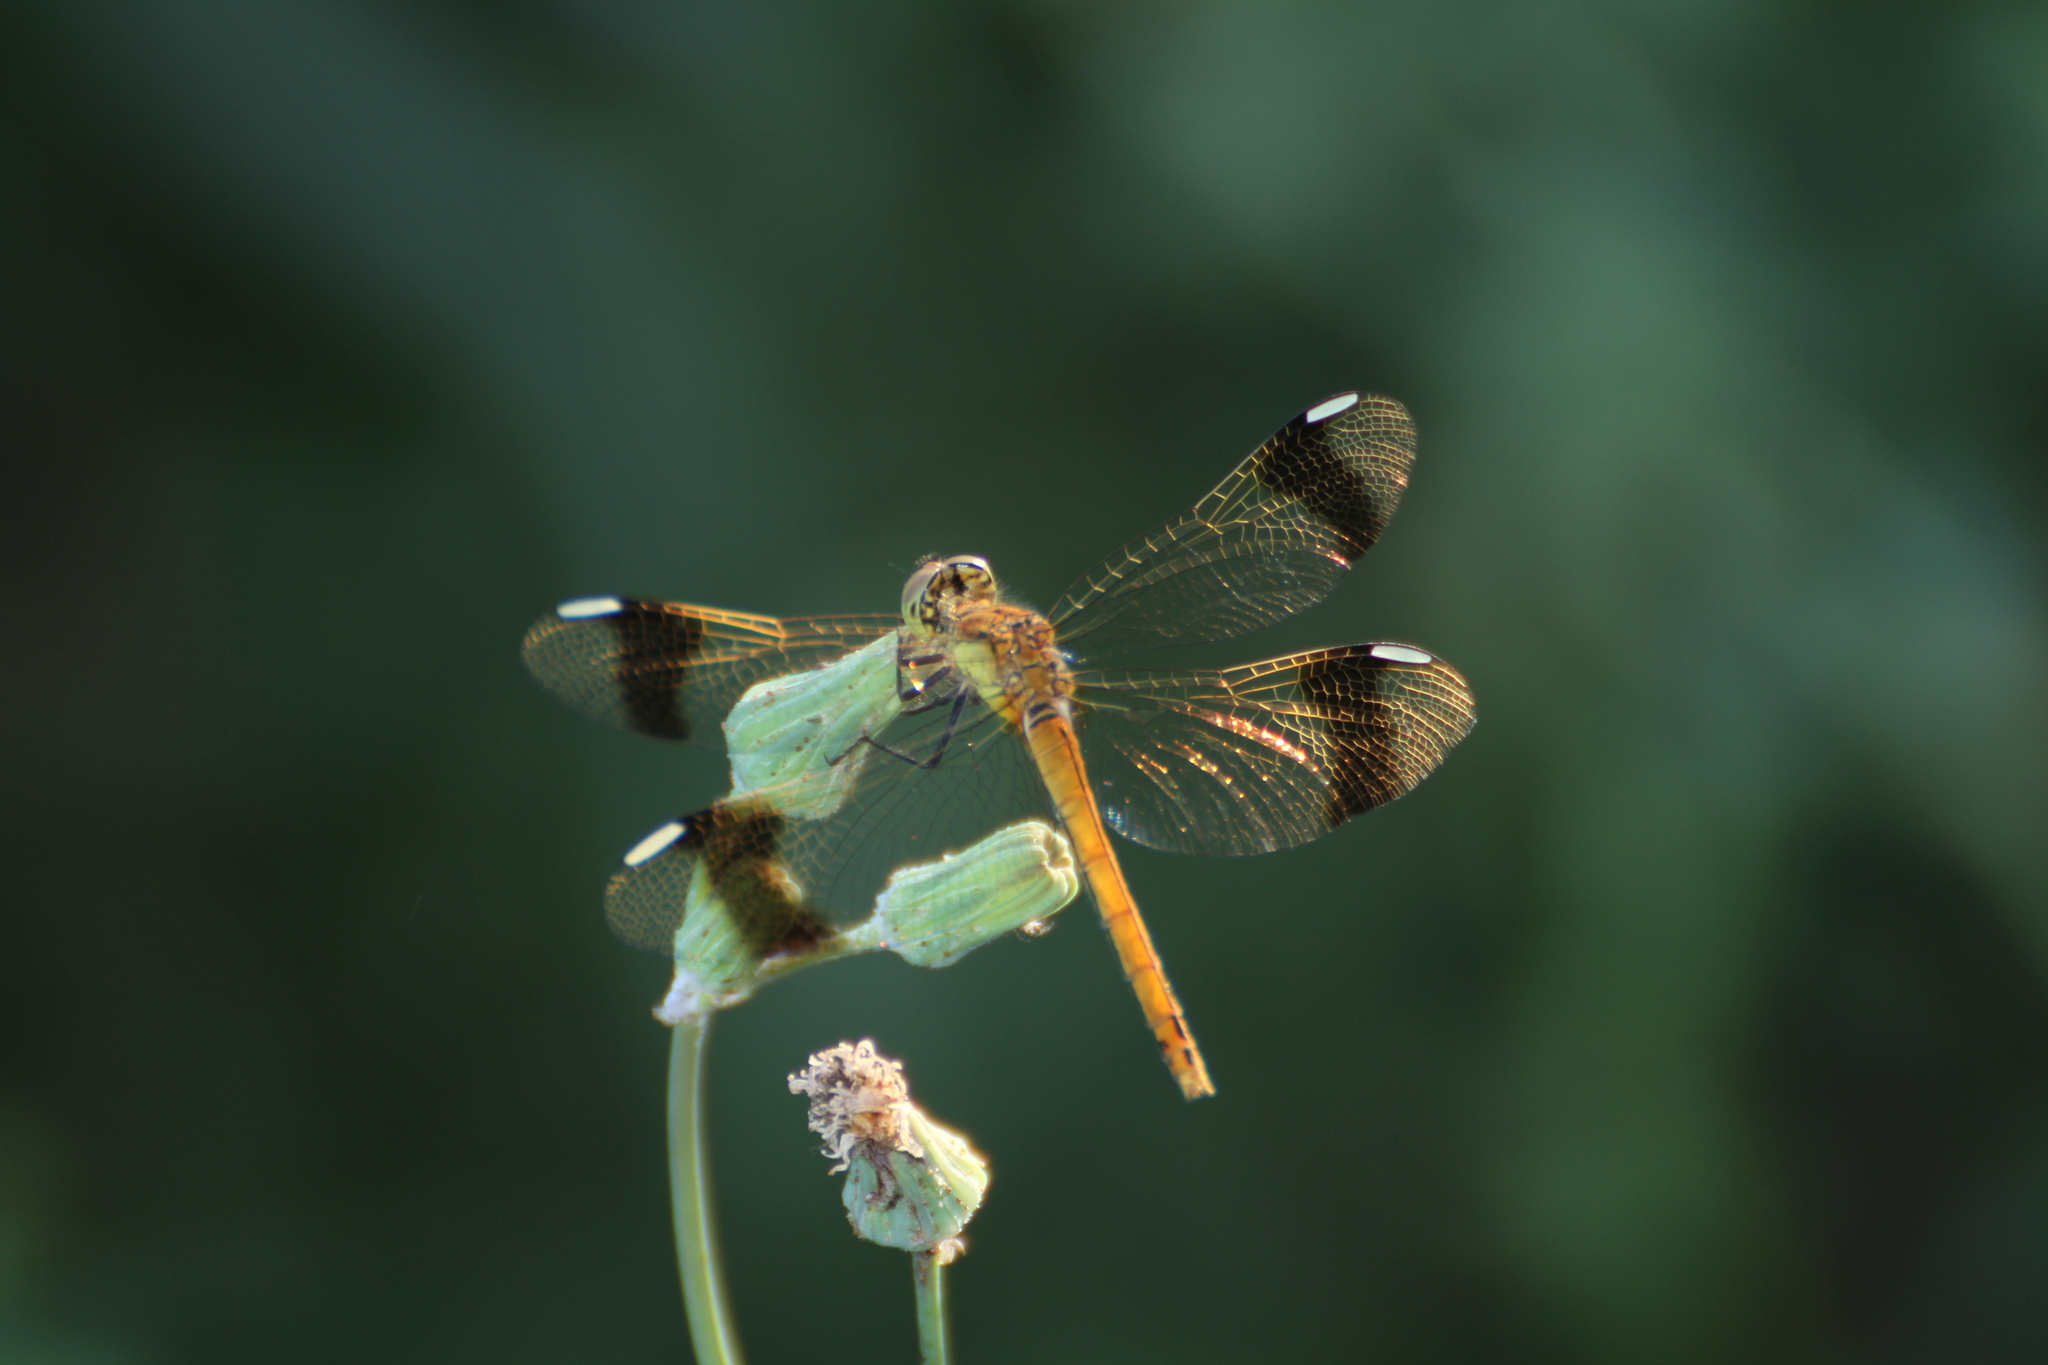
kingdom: Animalia
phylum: Arthropoda
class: Insecta
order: Odonata
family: Libellulidae
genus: Sympetrum
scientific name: Sympetrum pedemontanum
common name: Banded darter
